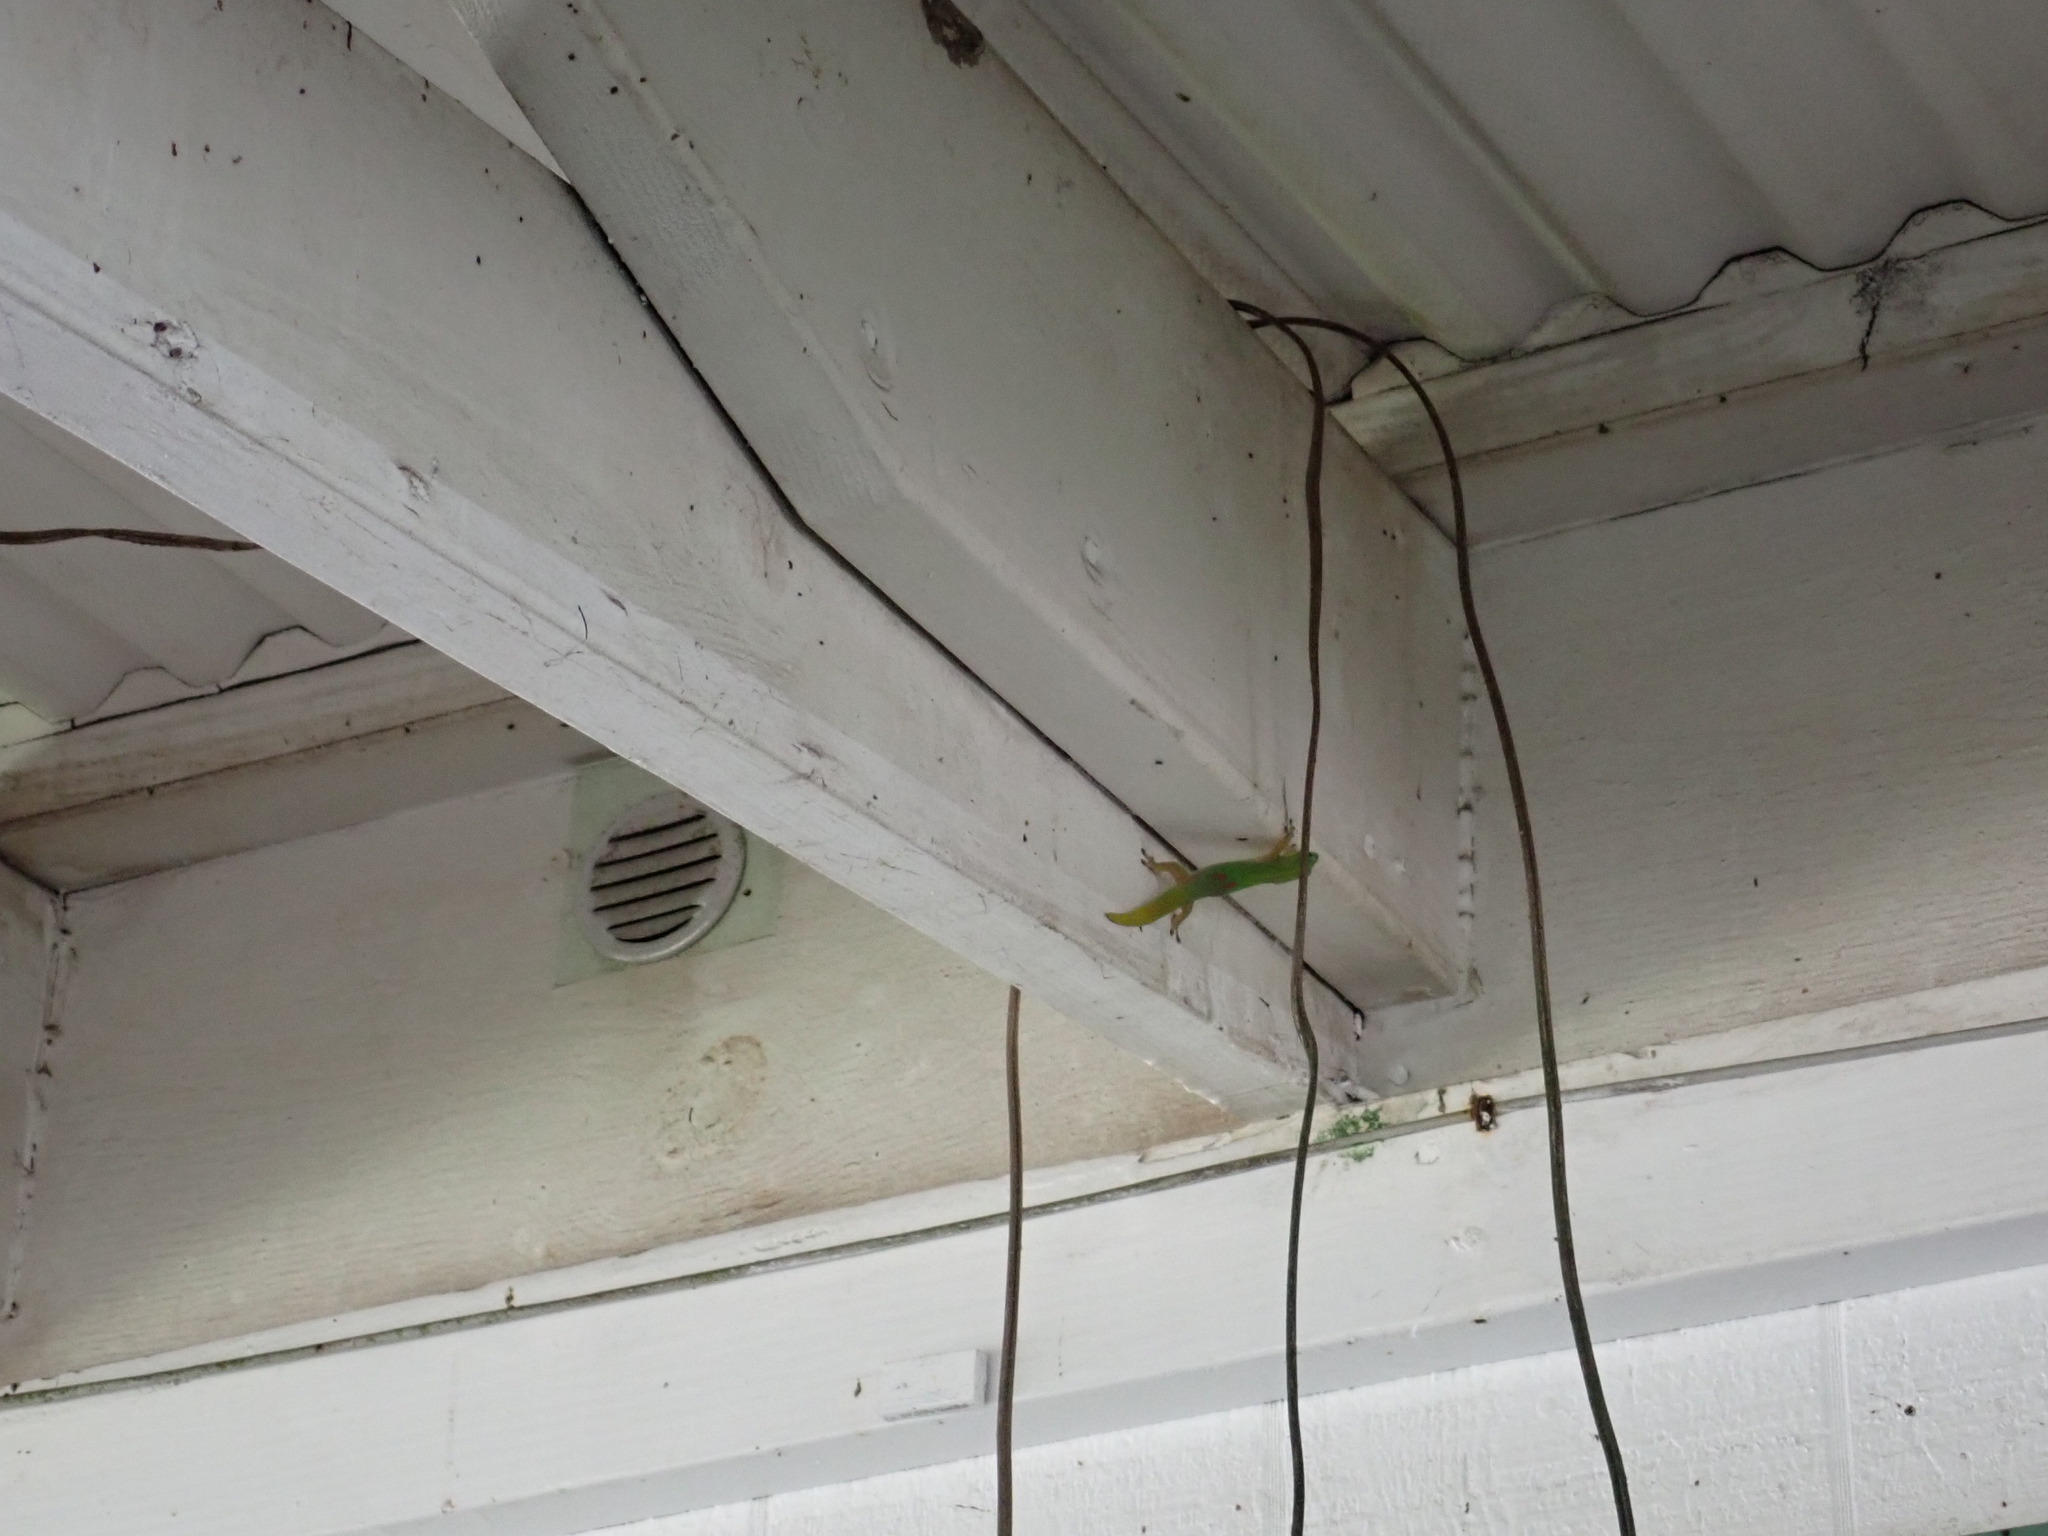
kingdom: Animalia
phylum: Chordata
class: Squamata
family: Gekkonidae
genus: Phelsuma
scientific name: Phelsuma laticauda
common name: Gold dust day gecko
